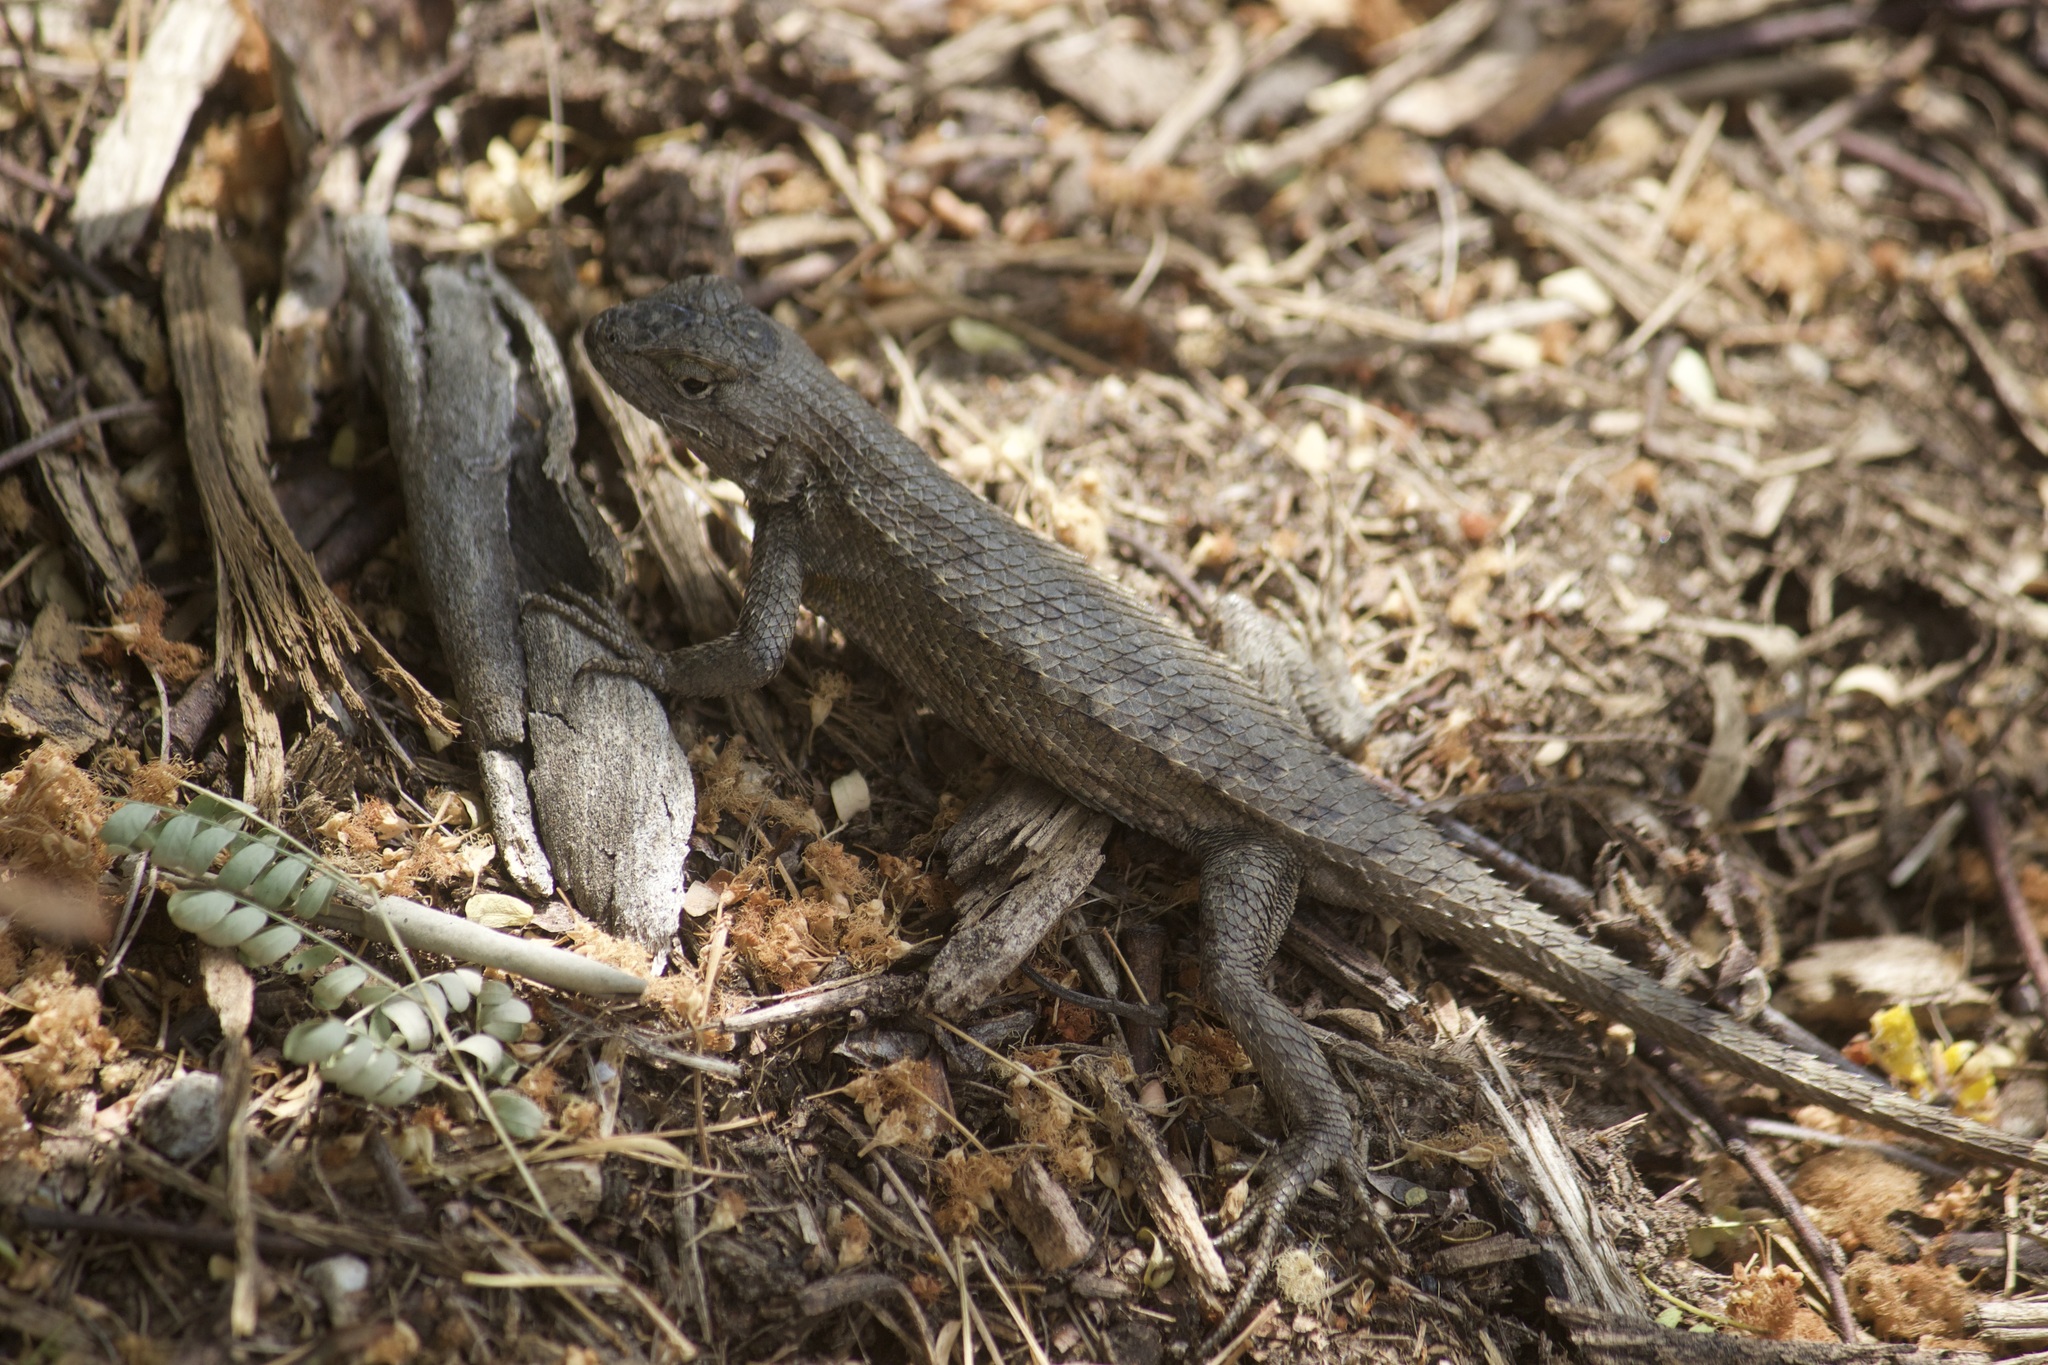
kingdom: Animalia
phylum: Chordata
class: Squamata
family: Phrynosomatidae
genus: Sceloporus
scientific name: Sceloporus occidentalis
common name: Western fence lizard
